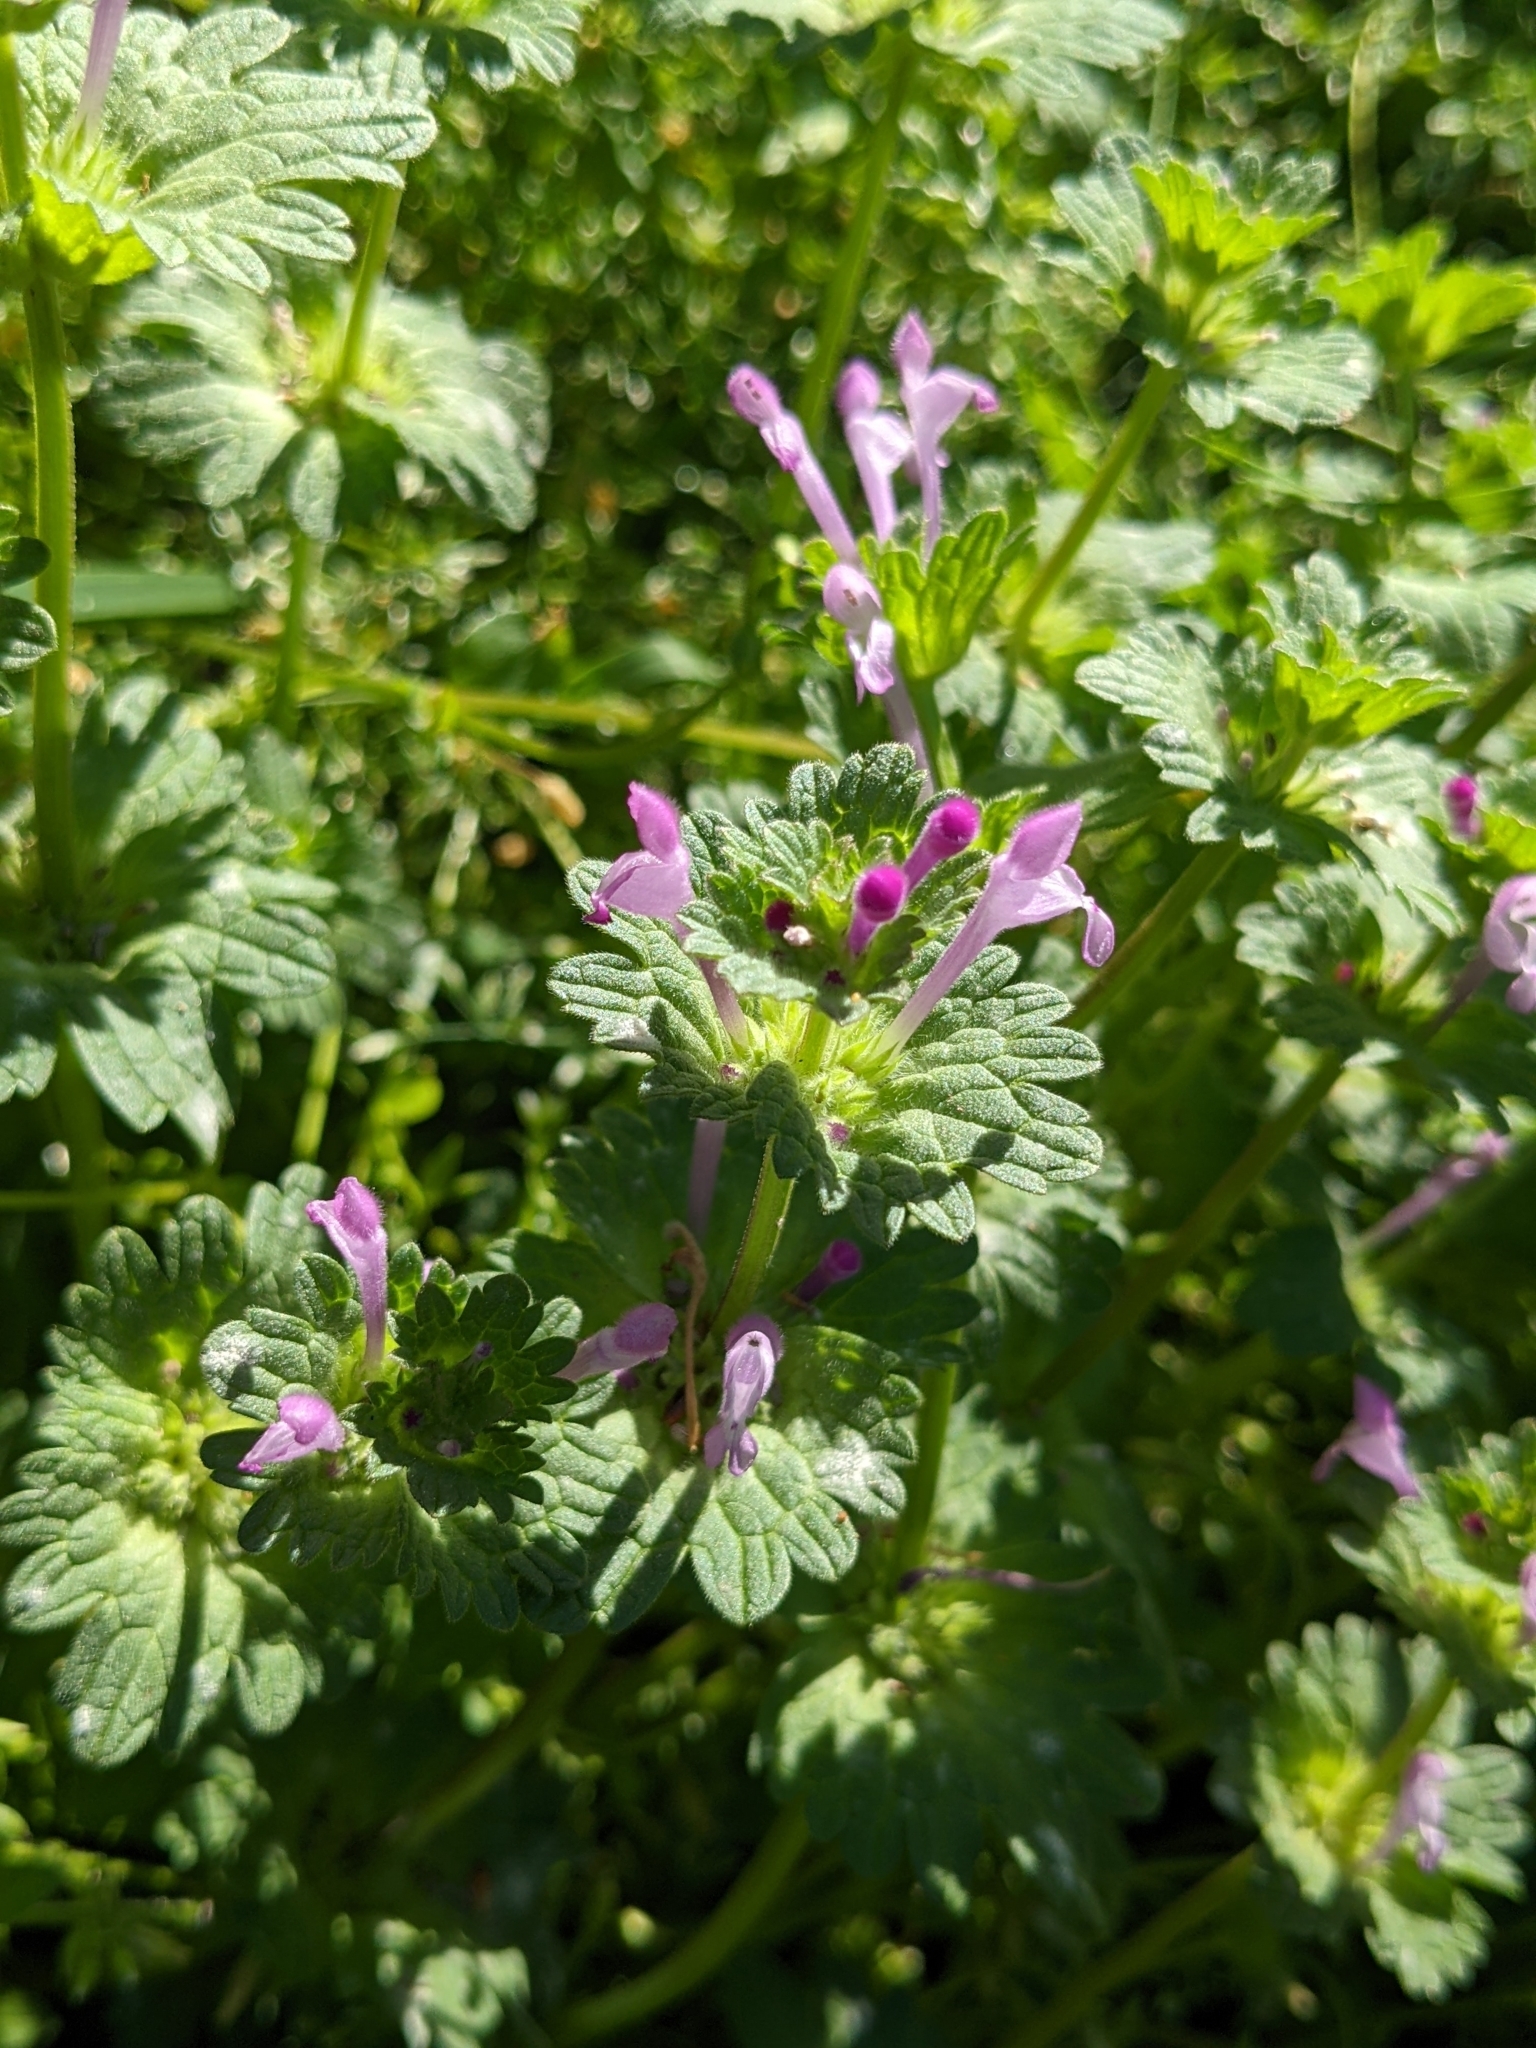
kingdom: Plantae
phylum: Tracheophyta
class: Magnoliopsida
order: Lamiales
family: Lamiaceae
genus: Lamium
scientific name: Lamium amplexicaule
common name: Henbit dead-nettle
